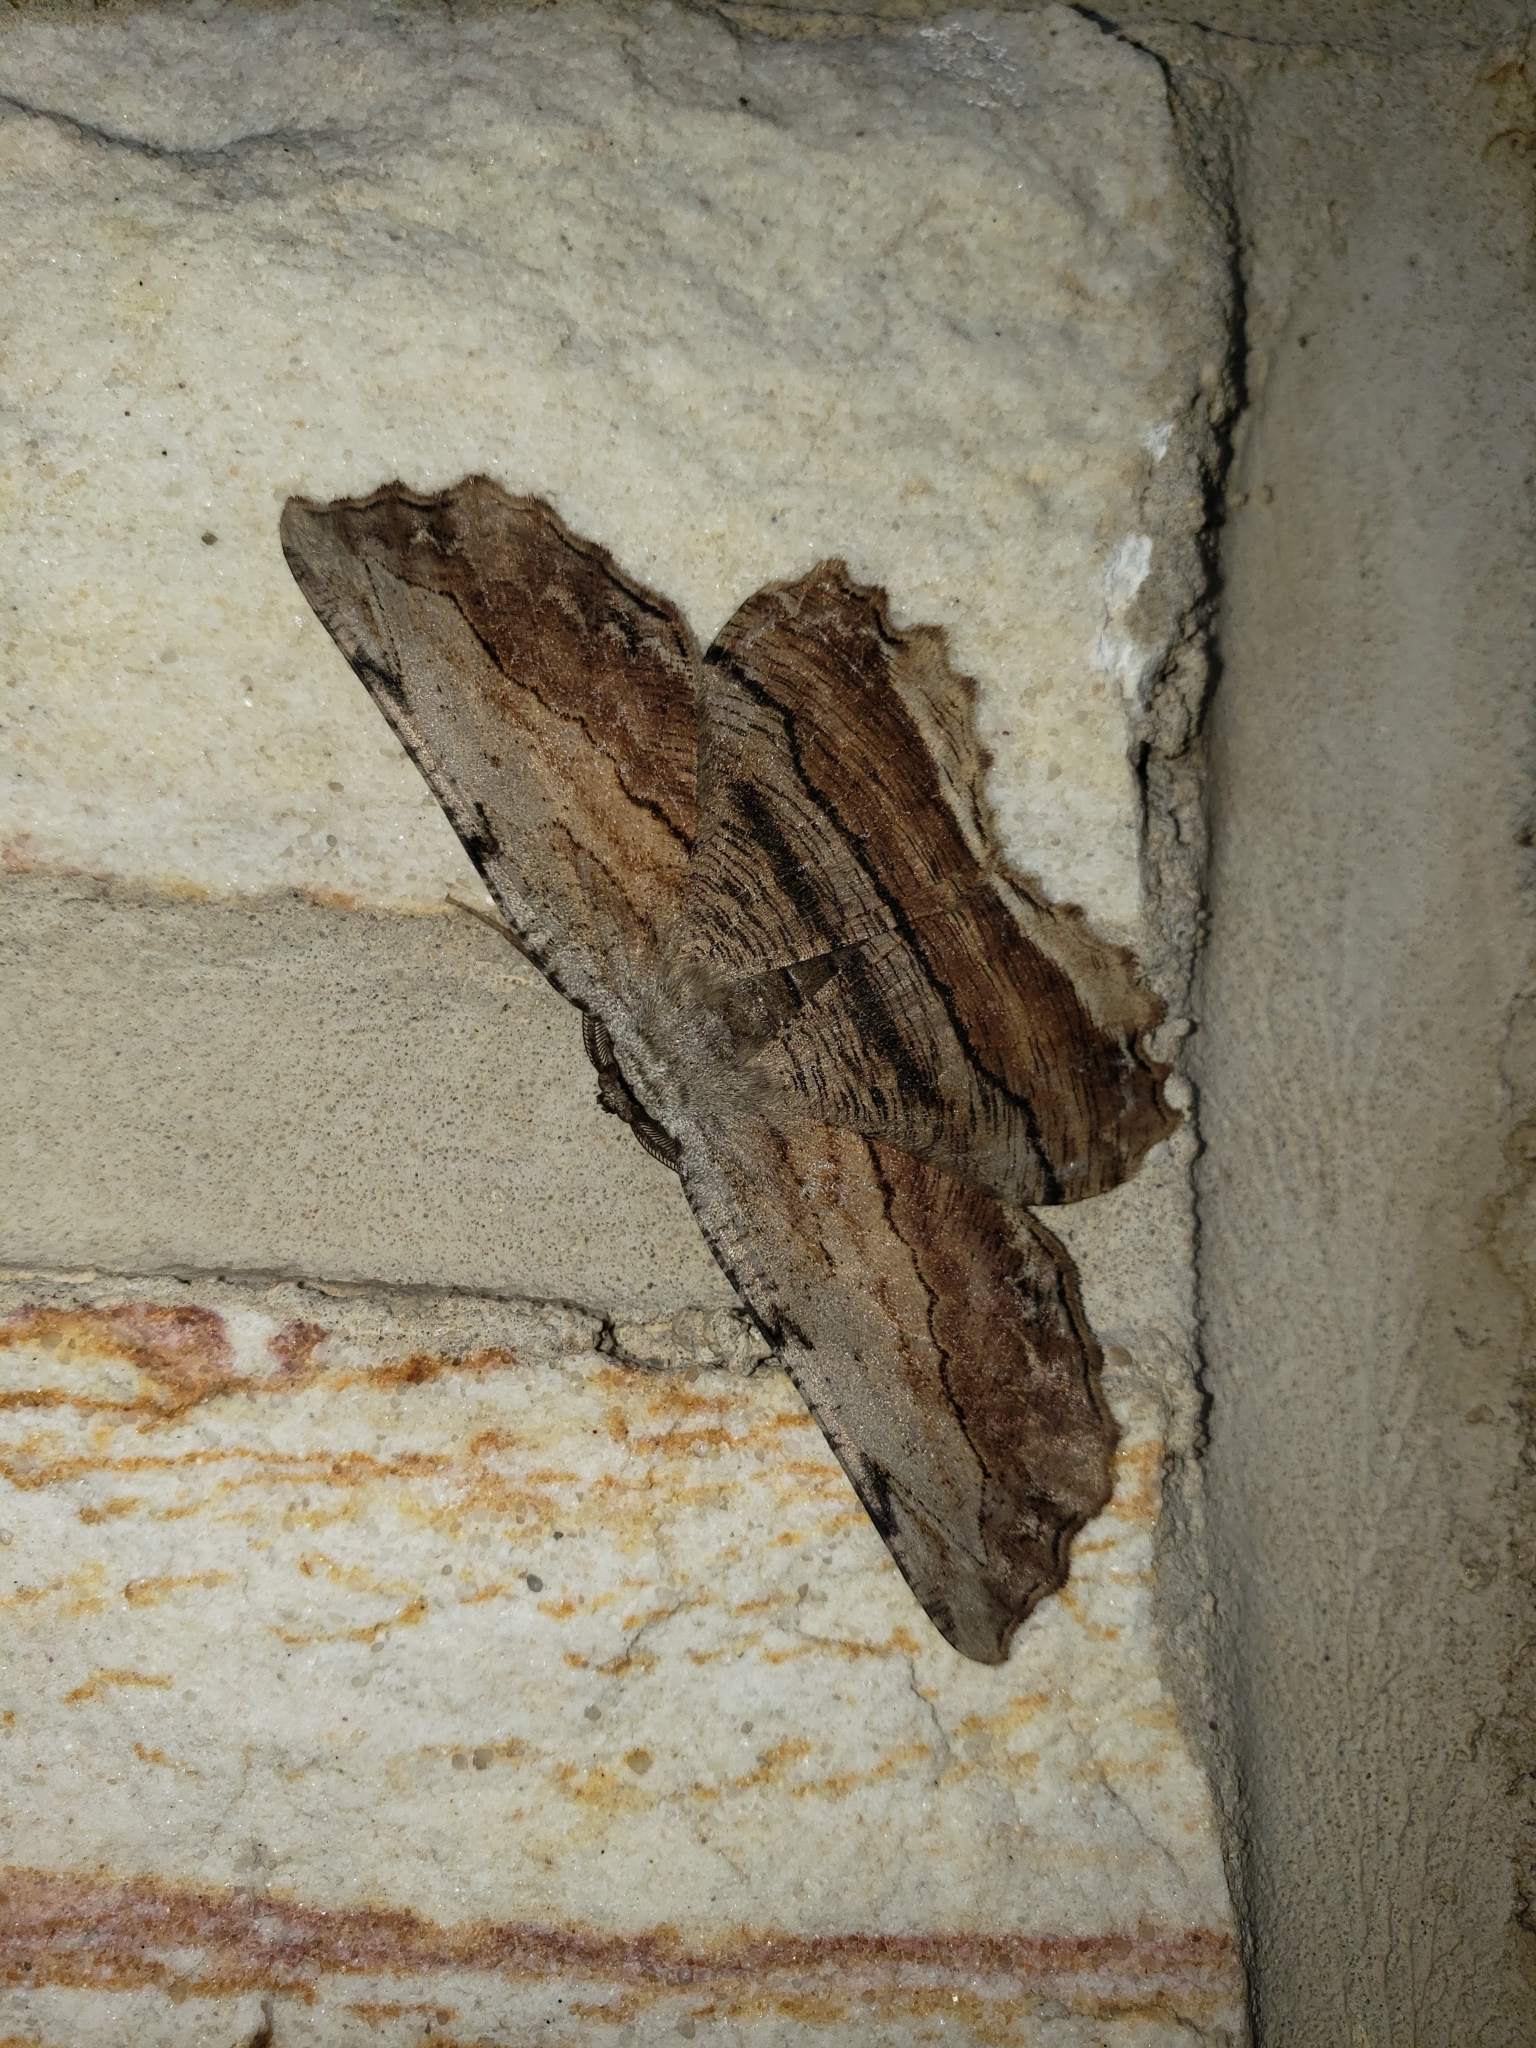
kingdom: Animalia
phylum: Arthropoda
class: Insecta
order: Lepidoptera
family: Geometridae
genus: Lytrosis
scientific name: Lytrosis unitaria
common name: Common lytrosis
